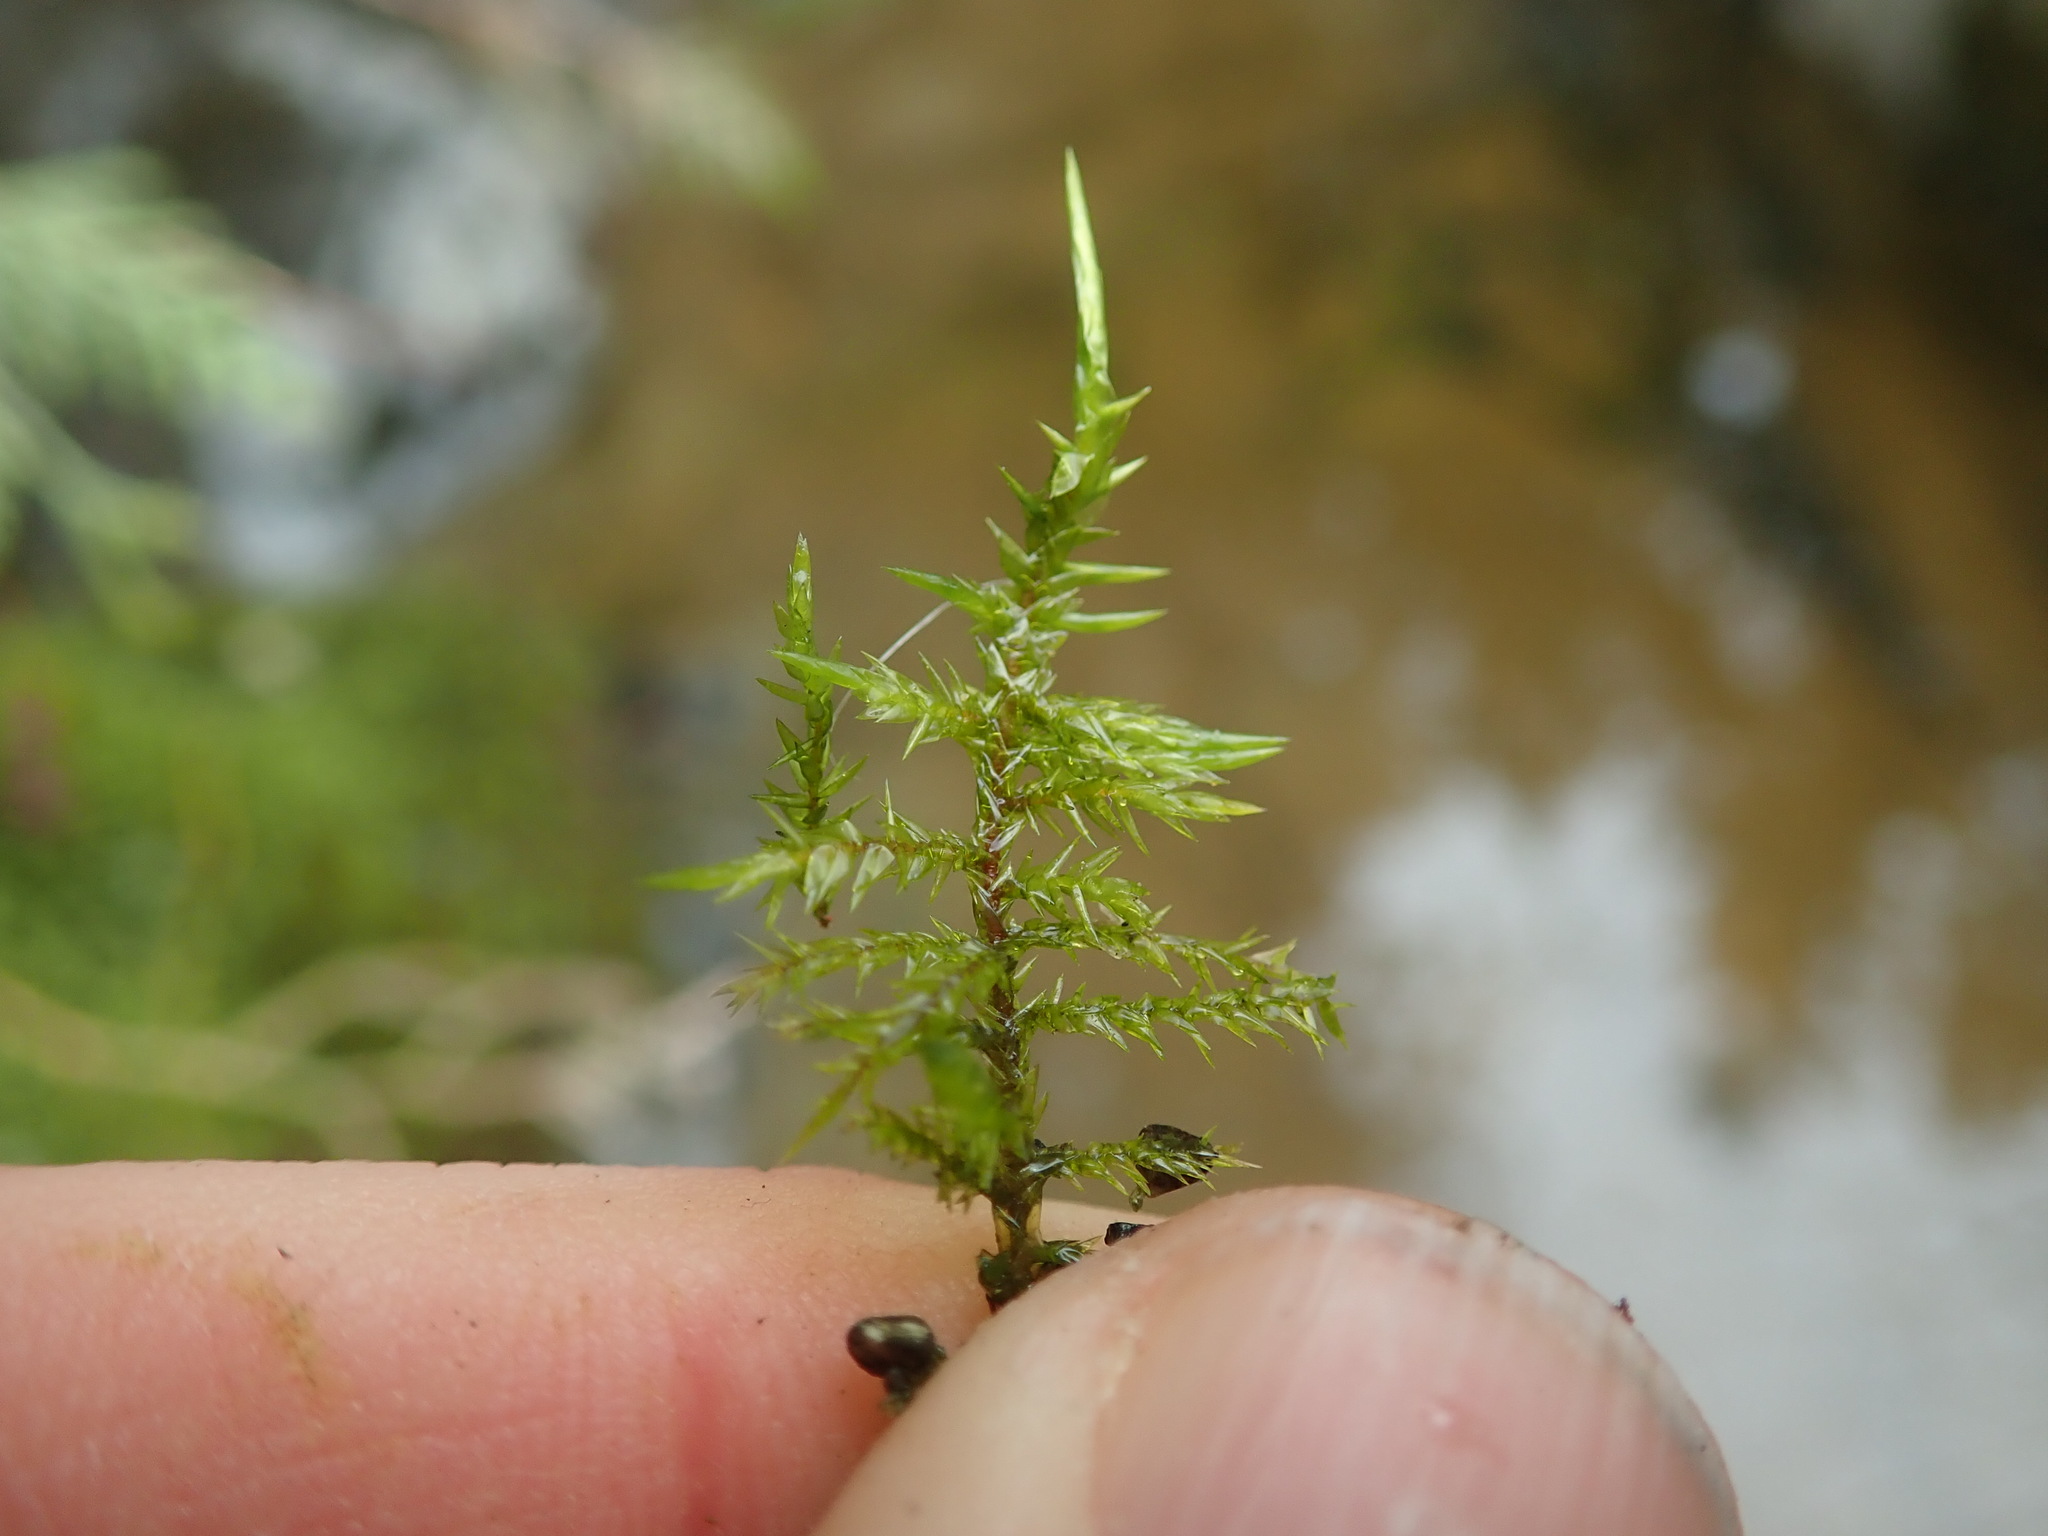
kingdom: Plantae
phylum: Bryophyta
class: Bryopsida
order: Hypnales
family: Pylaisiaceae
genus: Calliergonella
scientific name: Calliergonella cuspidata
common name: Common large wetland moss
